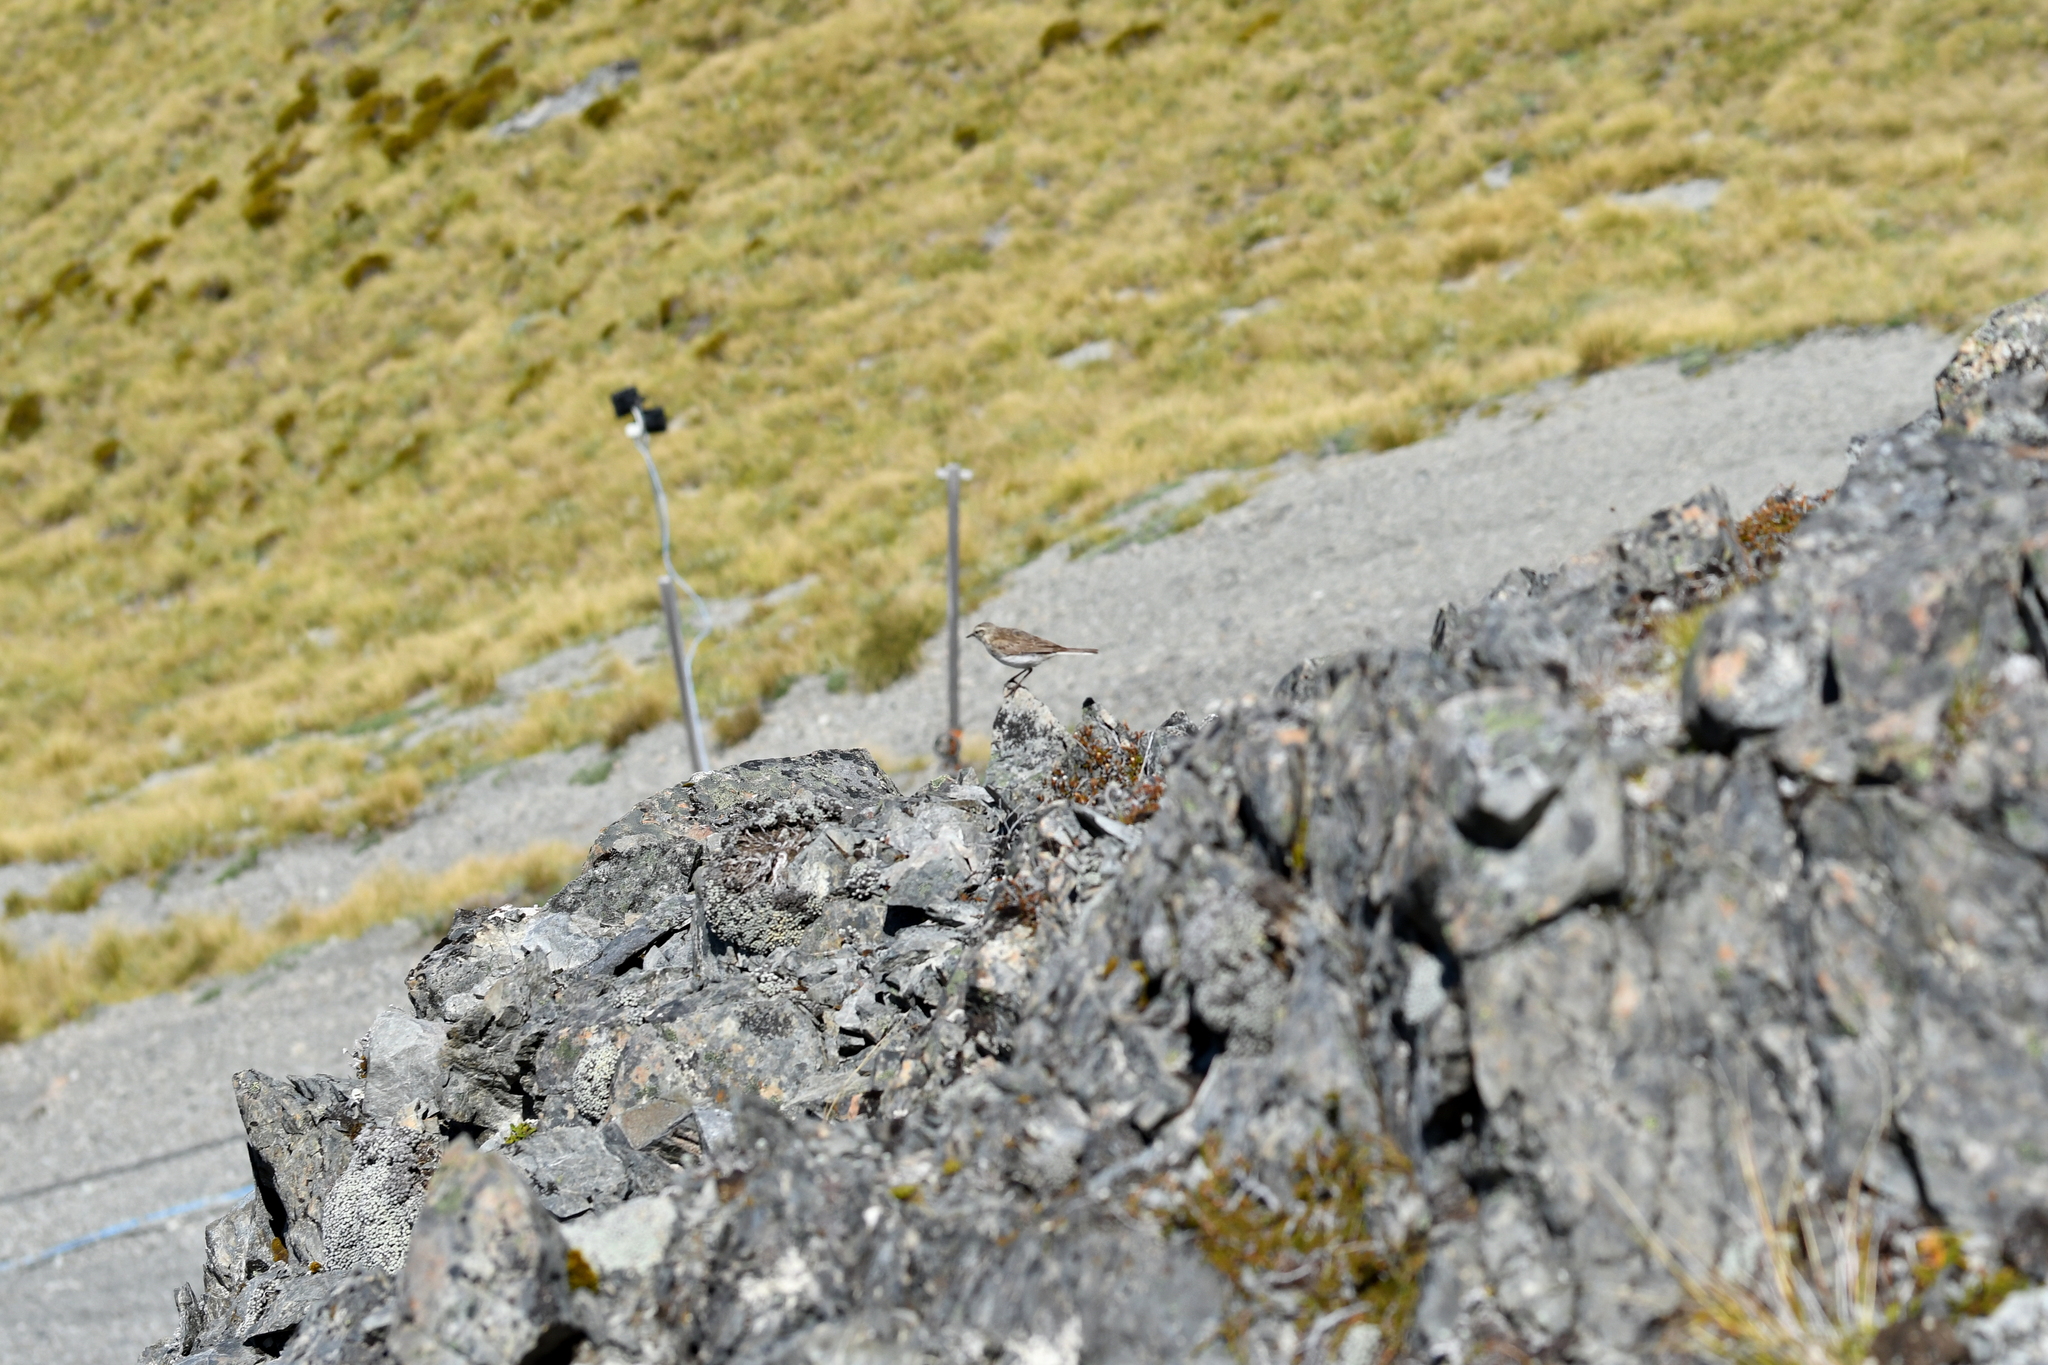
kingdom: Animalia
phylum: Chordata
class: Aves
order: Passeriformes
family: Motacillidae
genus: Anthus
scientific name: Anthus novaeseelandiae
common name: New zealand pipit
